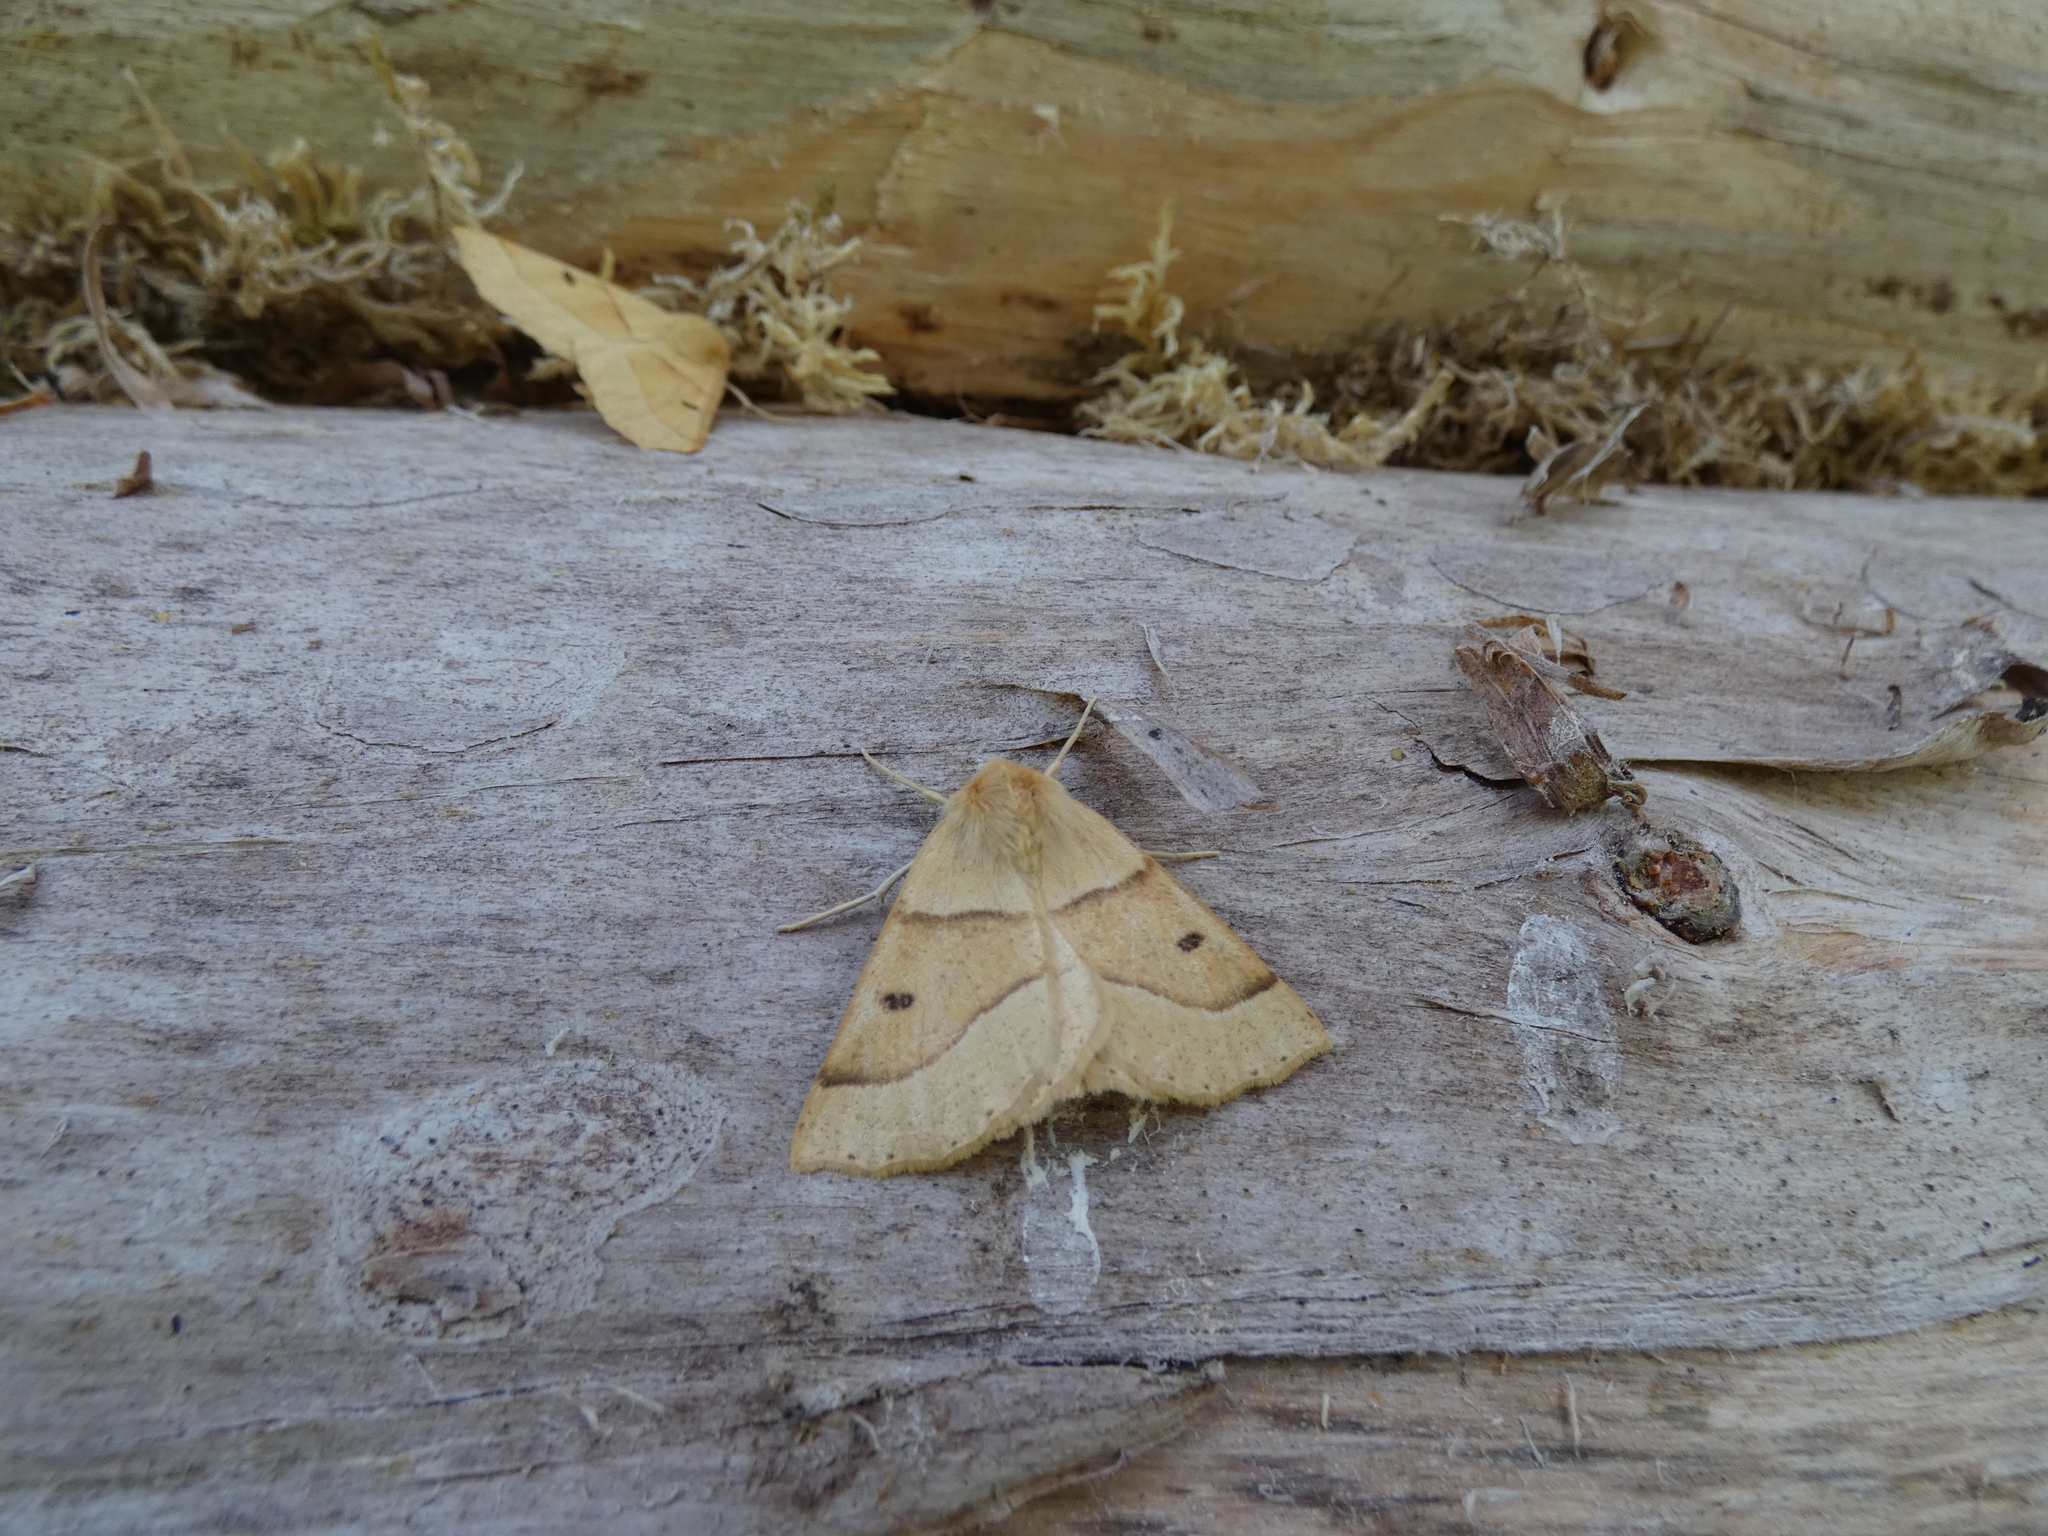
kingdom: Animalia
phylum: Arthropoda
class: Insecta
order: Lepidoptera
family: Geometridae
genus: Crocallis
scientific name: Crocallis elinguaria
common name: Scalloped oak
